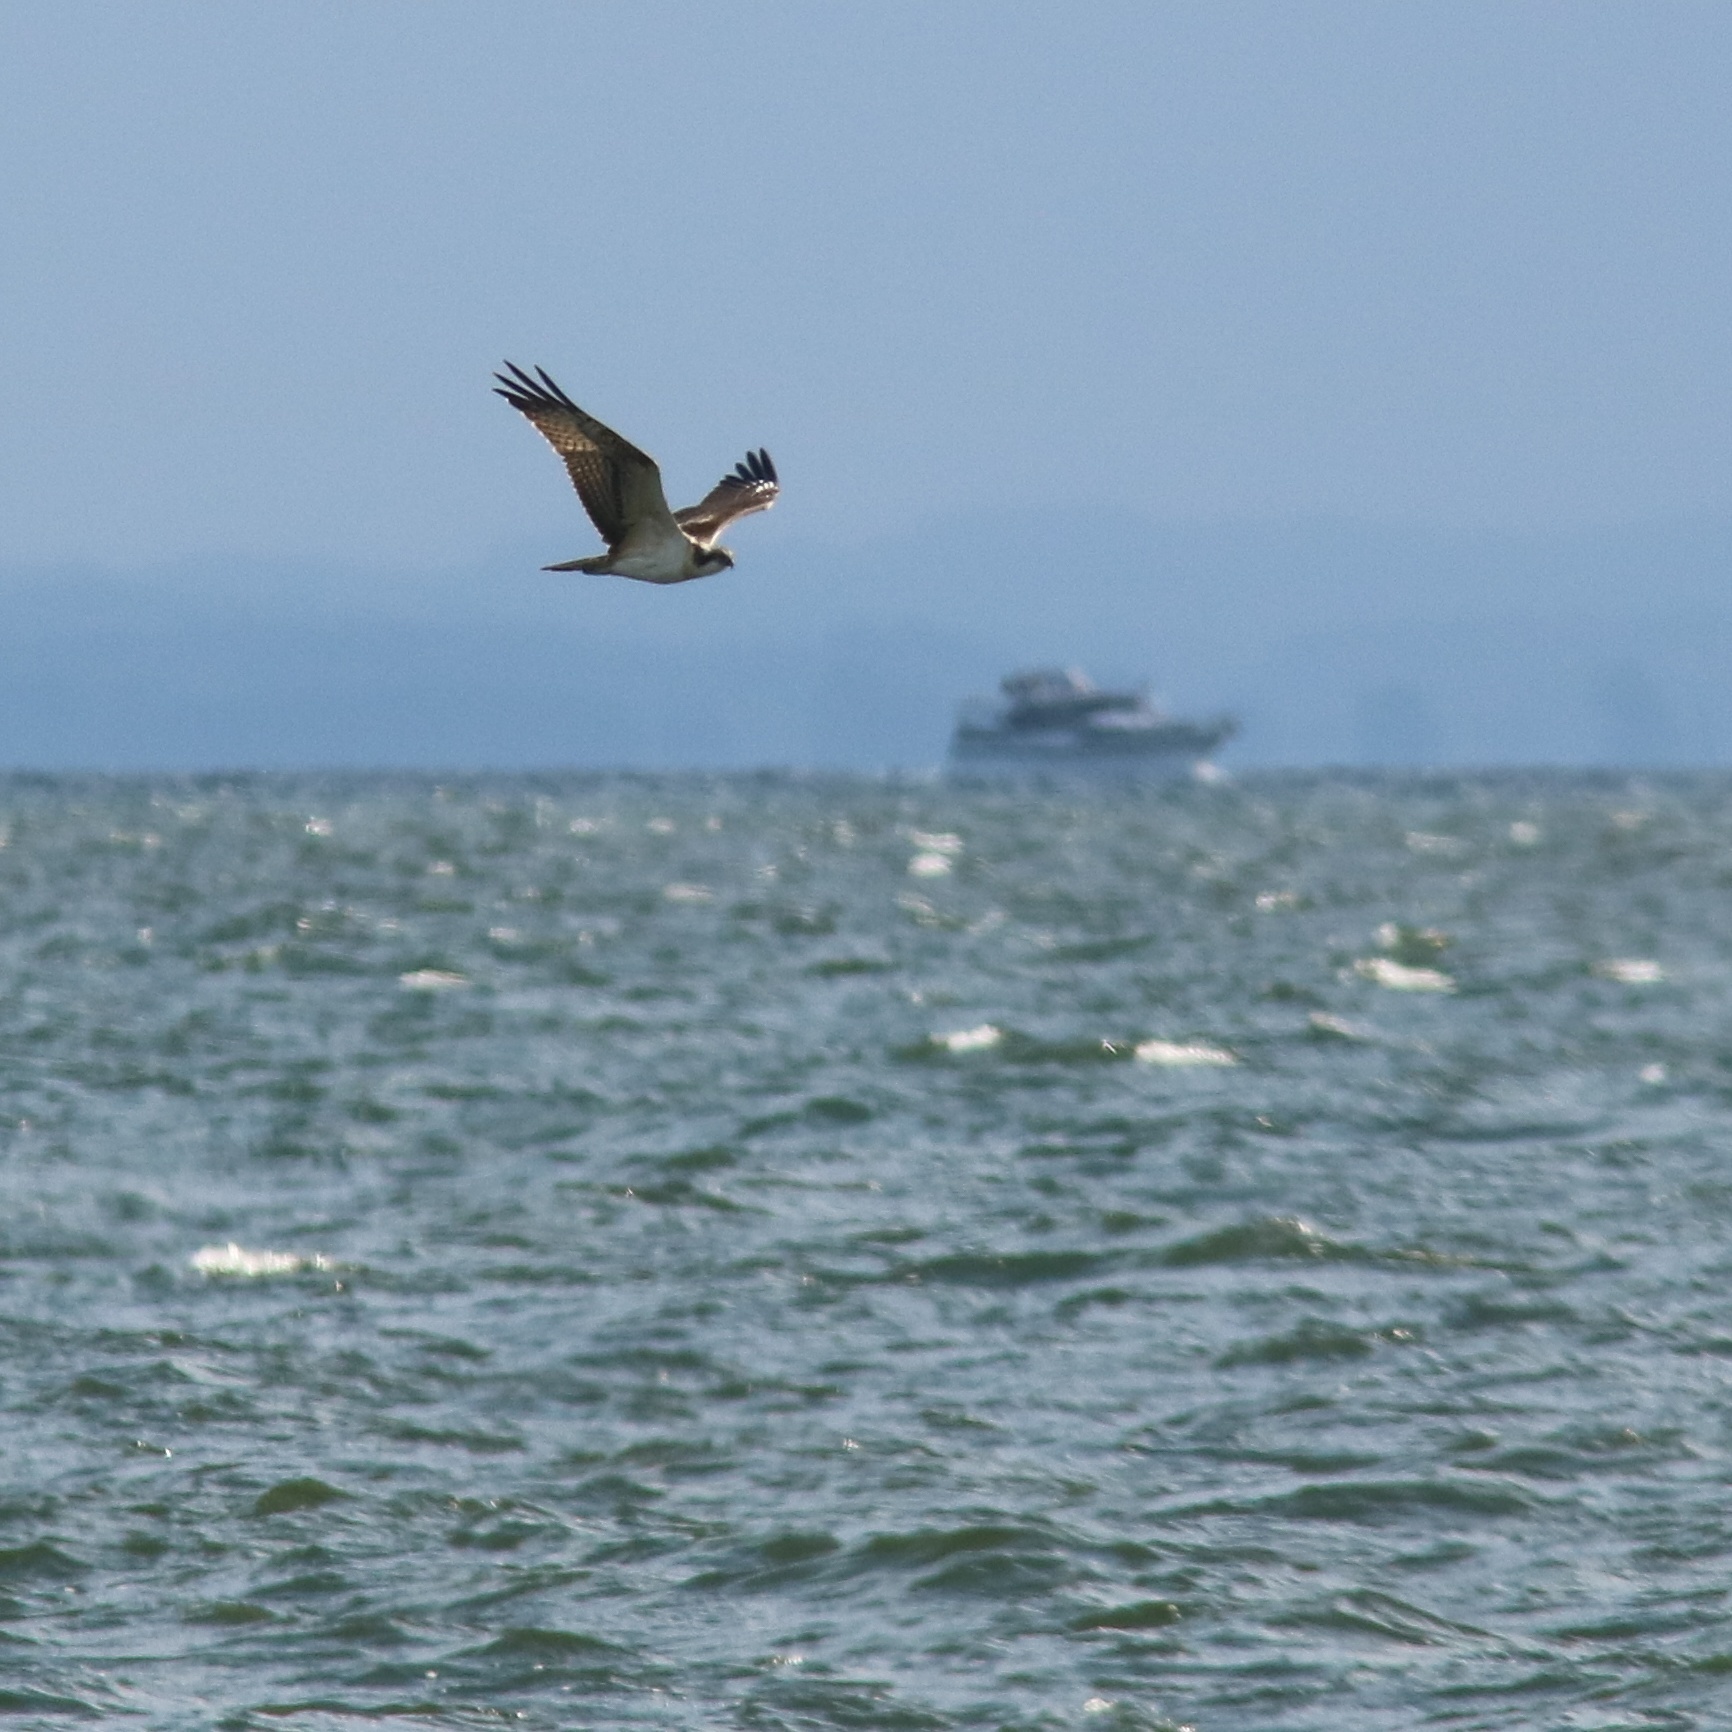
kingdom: Animalia
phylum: Chordata
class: Aves
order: Accipitriformes
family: Pandionidae
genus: Pandion
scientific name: Pandion haliaetus
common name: Osprey
